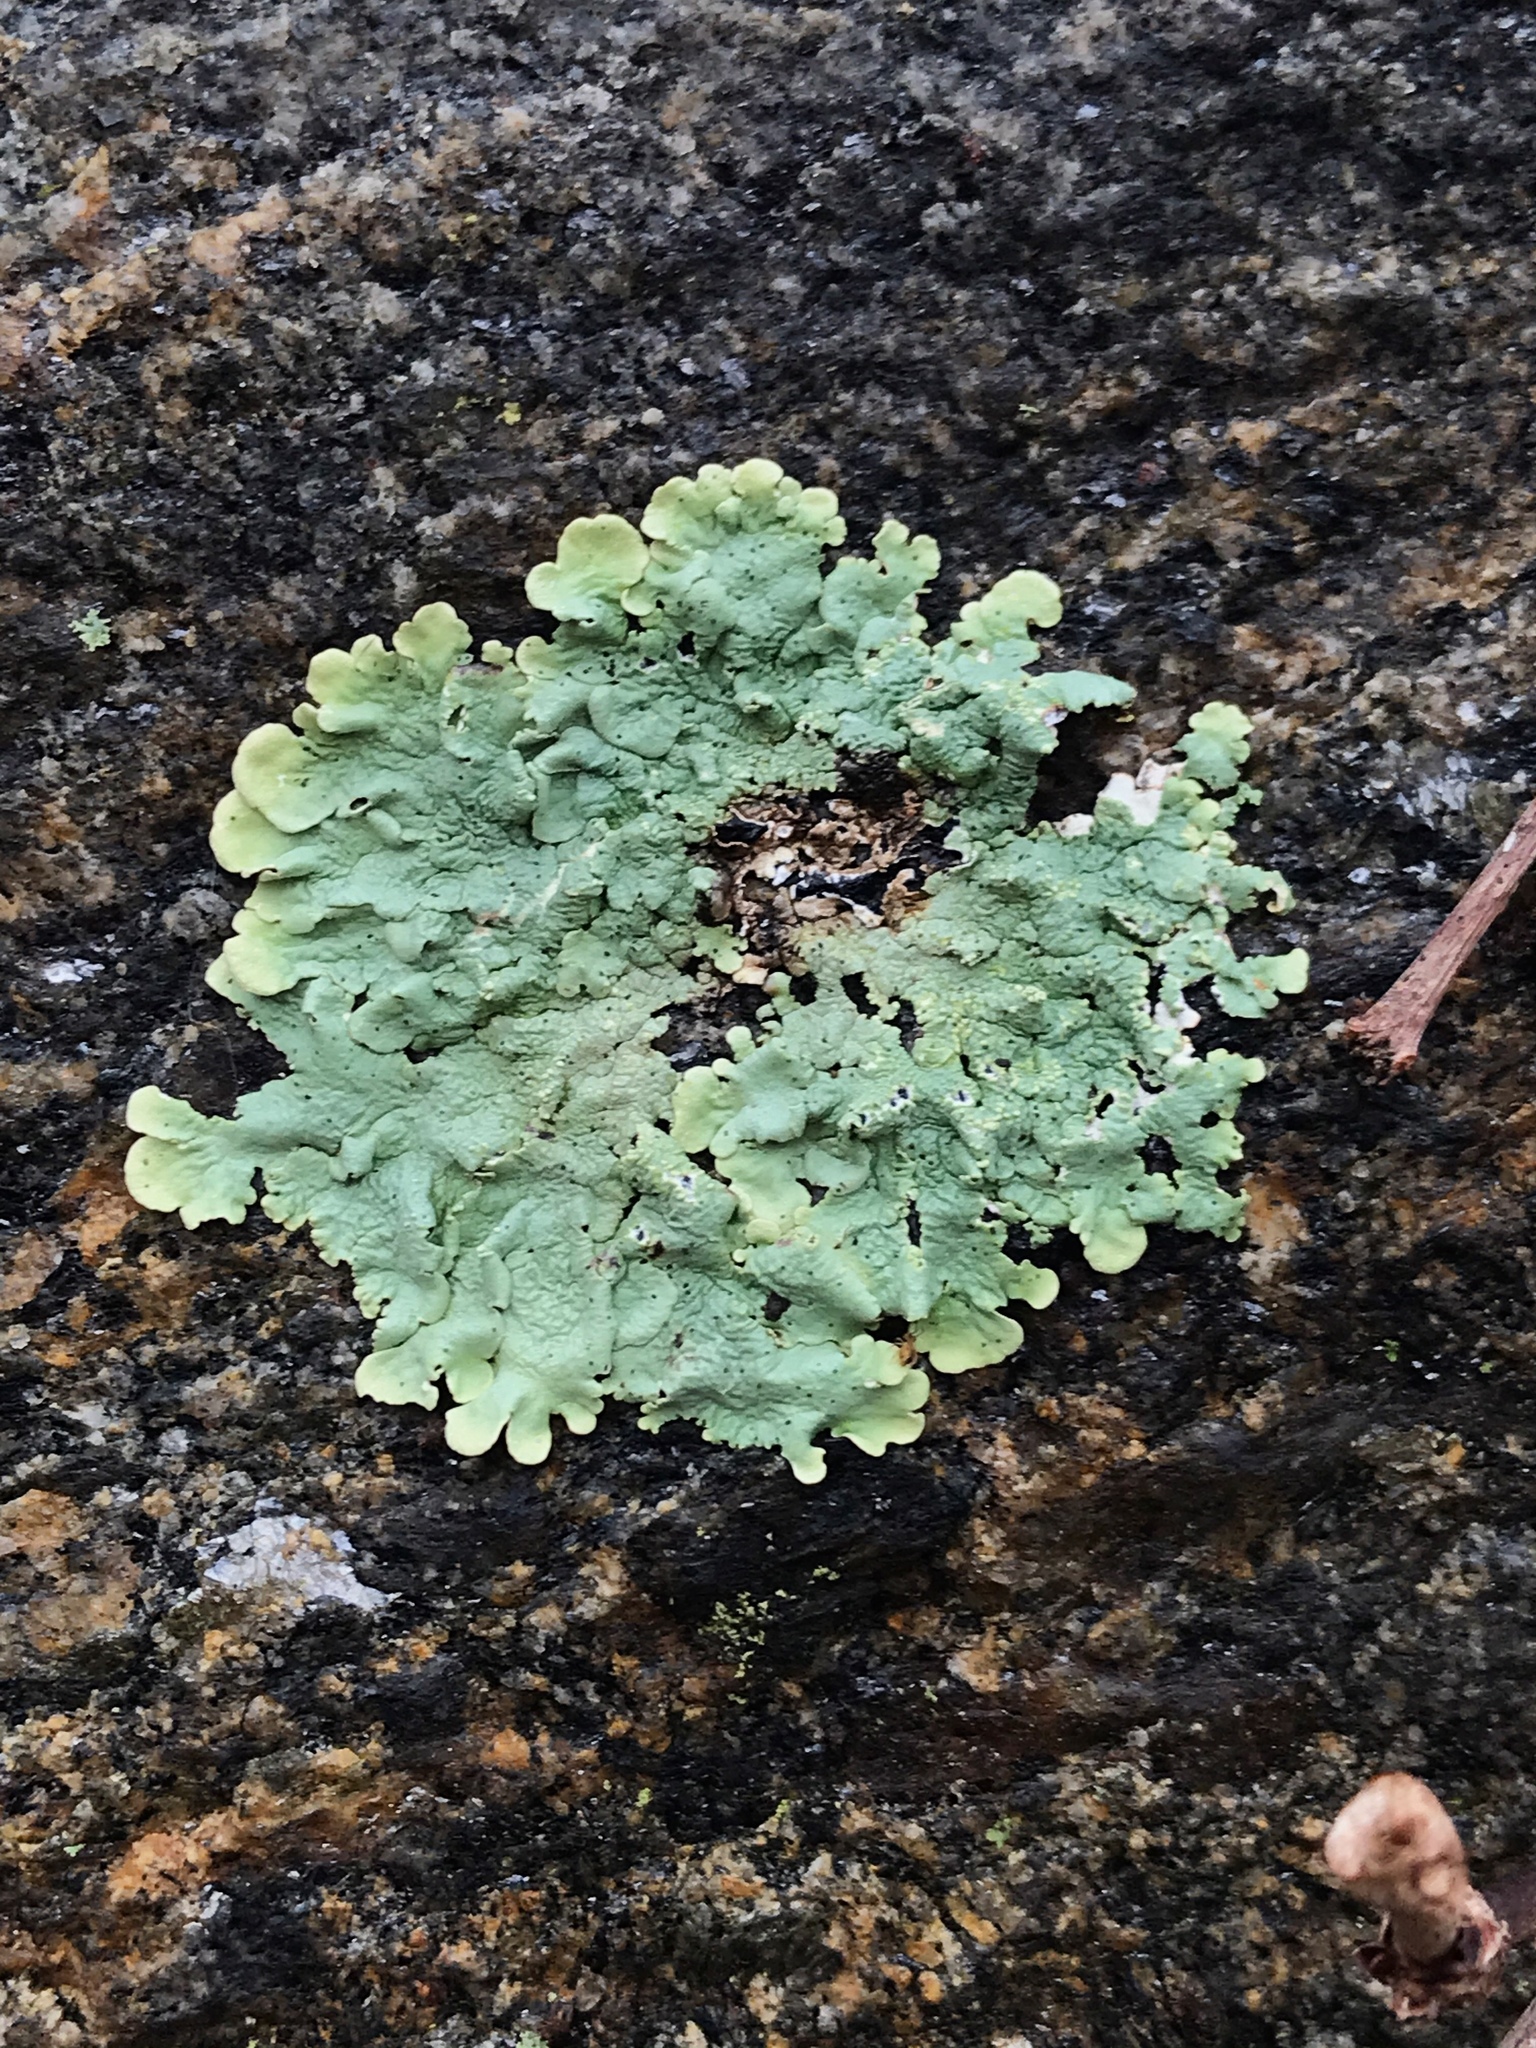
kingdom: Fungi
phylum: Ascomycota
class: Lecanoromycetes
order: Lecanorales
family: Parmeliaceae
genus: Flavoparmelia
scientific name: Flavoparmelia caperata
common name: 40-mile per hour lichen
